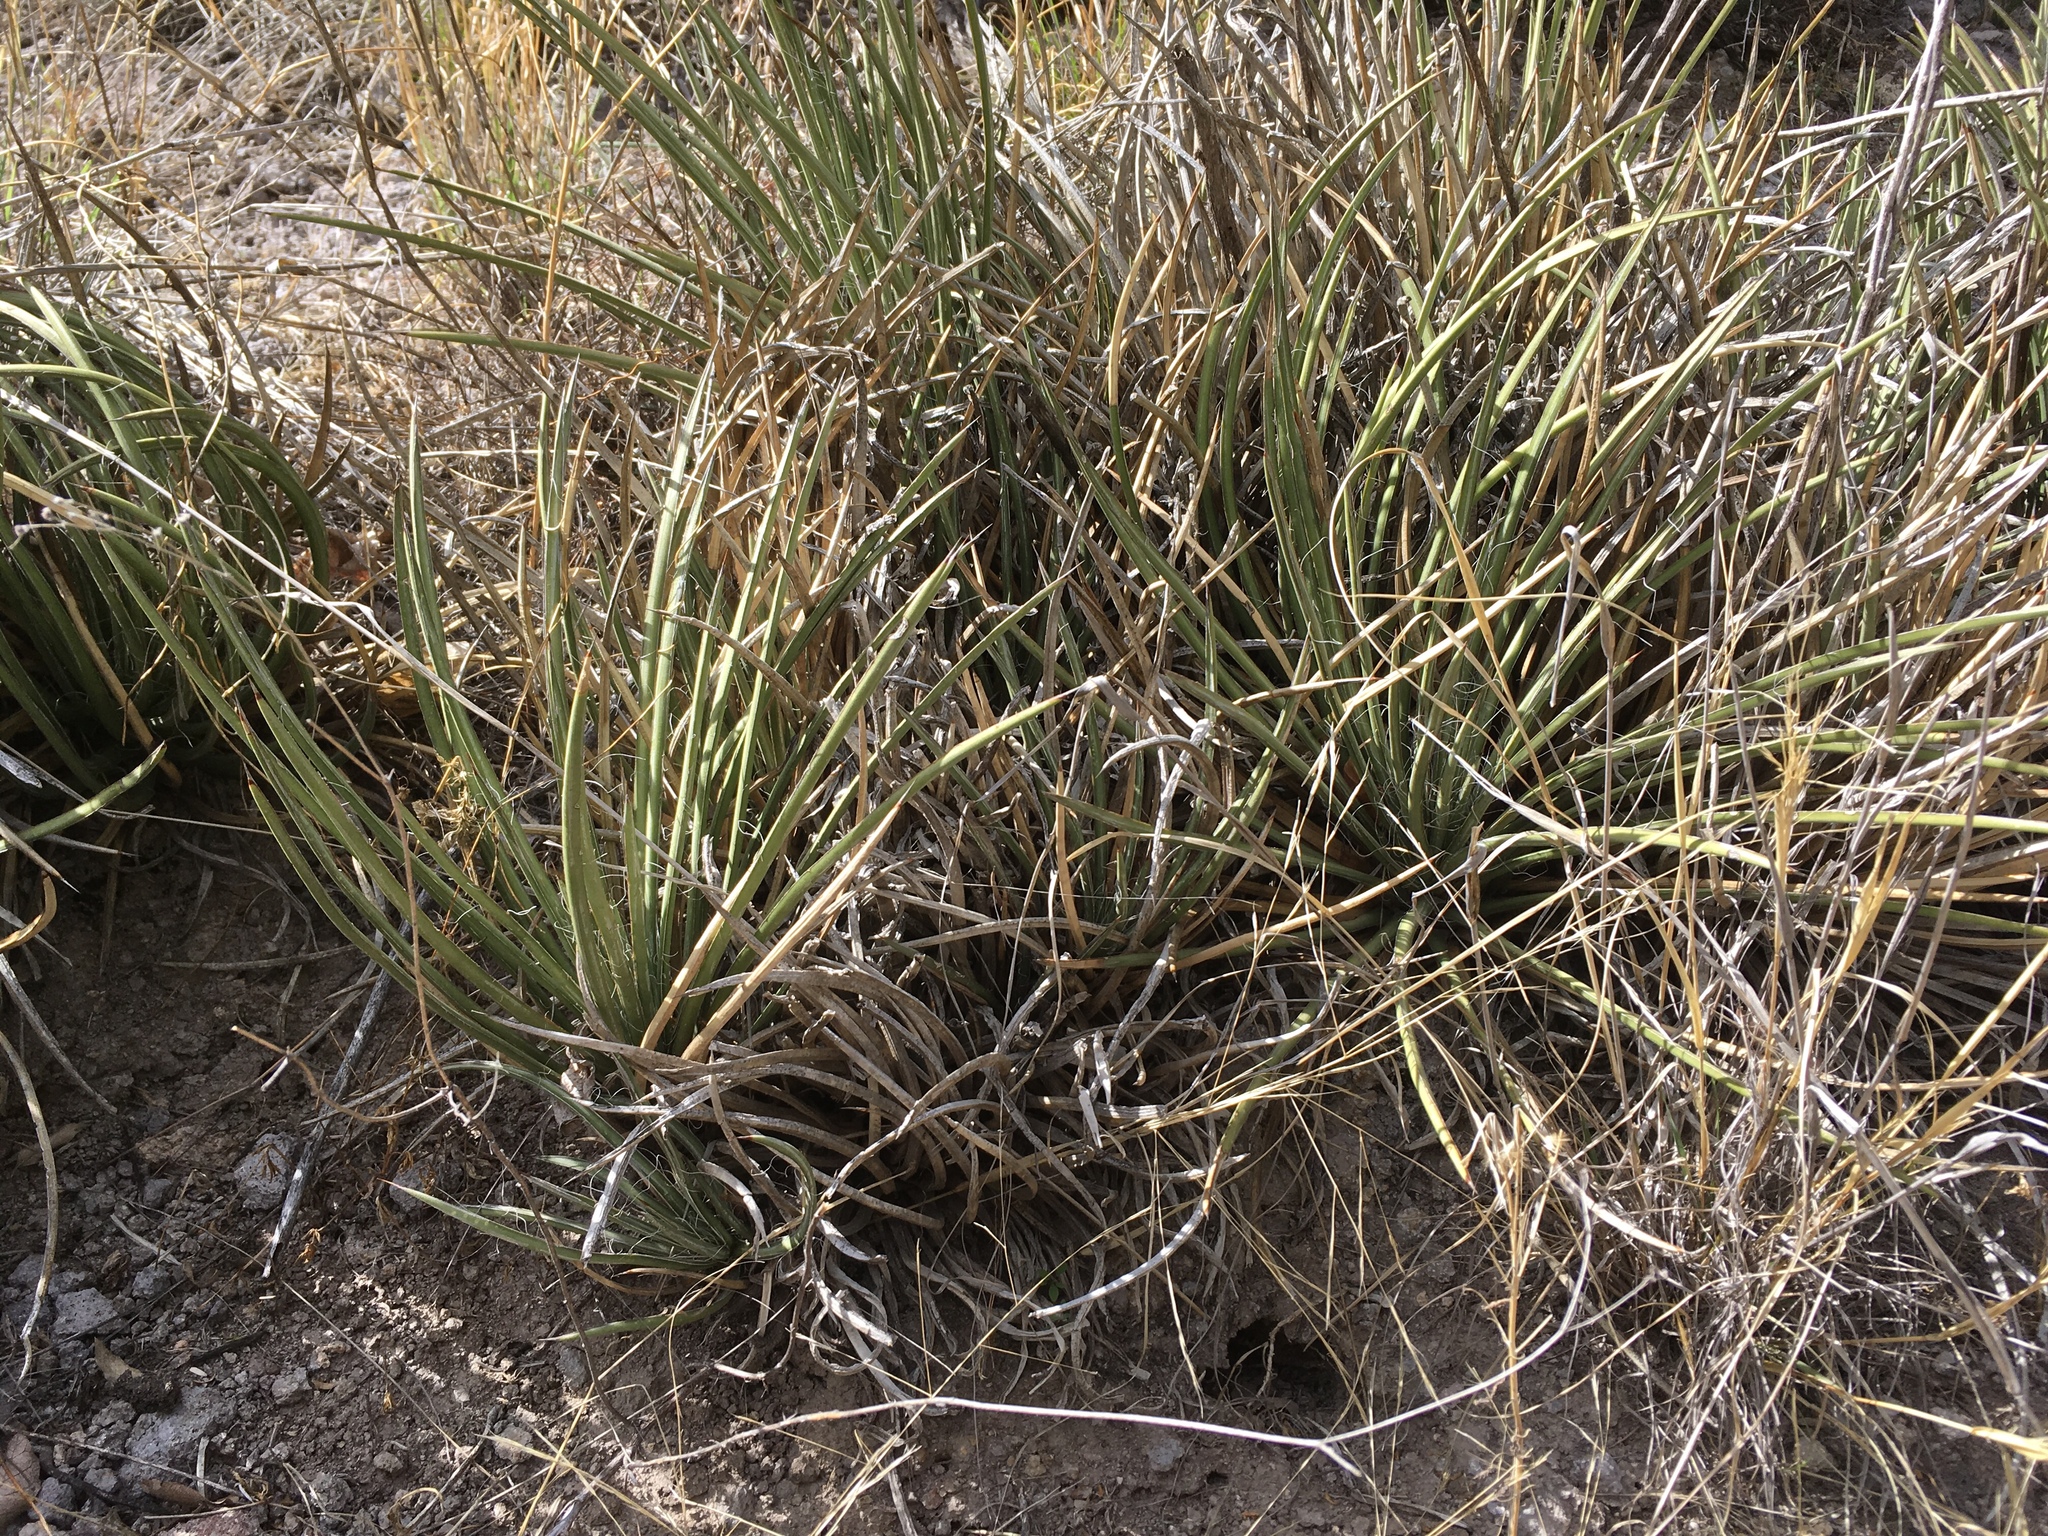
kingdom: Plantae
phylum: Tracheophyta
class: Liliopsida
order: Asparagales
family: Asparagaceae
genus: Agave
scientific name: Agave schottii
